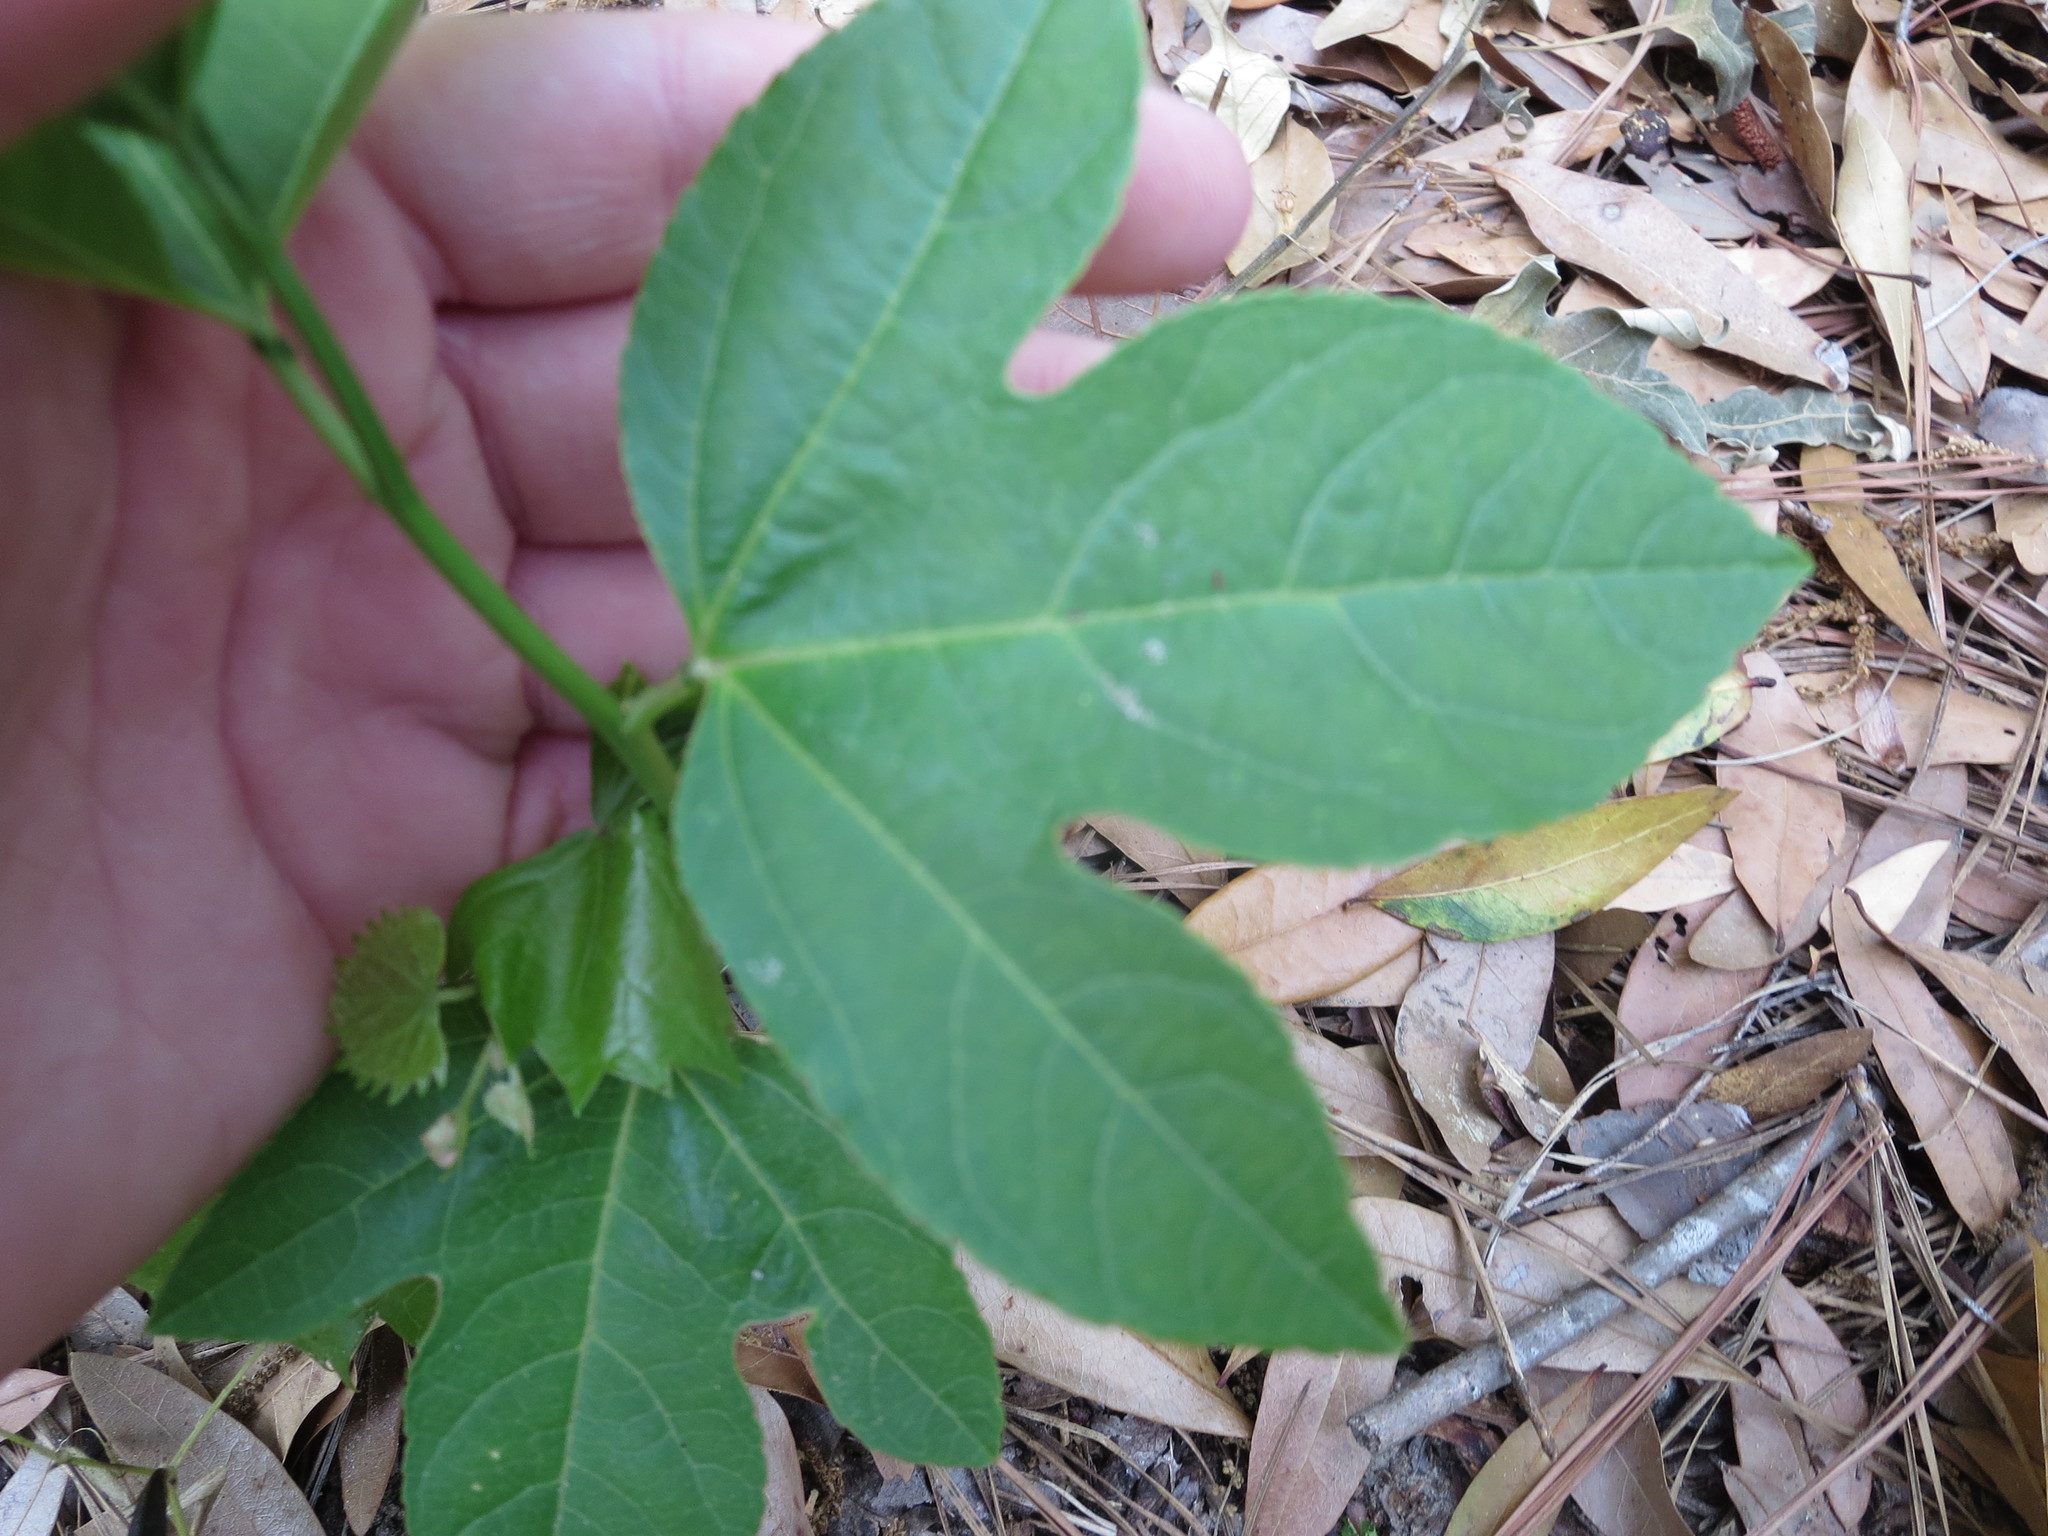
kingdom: Plantae
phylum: Tracheophyta
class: Magnoliopsida
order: Malpighiales
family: Passifloraceae
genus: Passiflora
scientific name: Passiflora incarnata
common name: Apricot-vine
